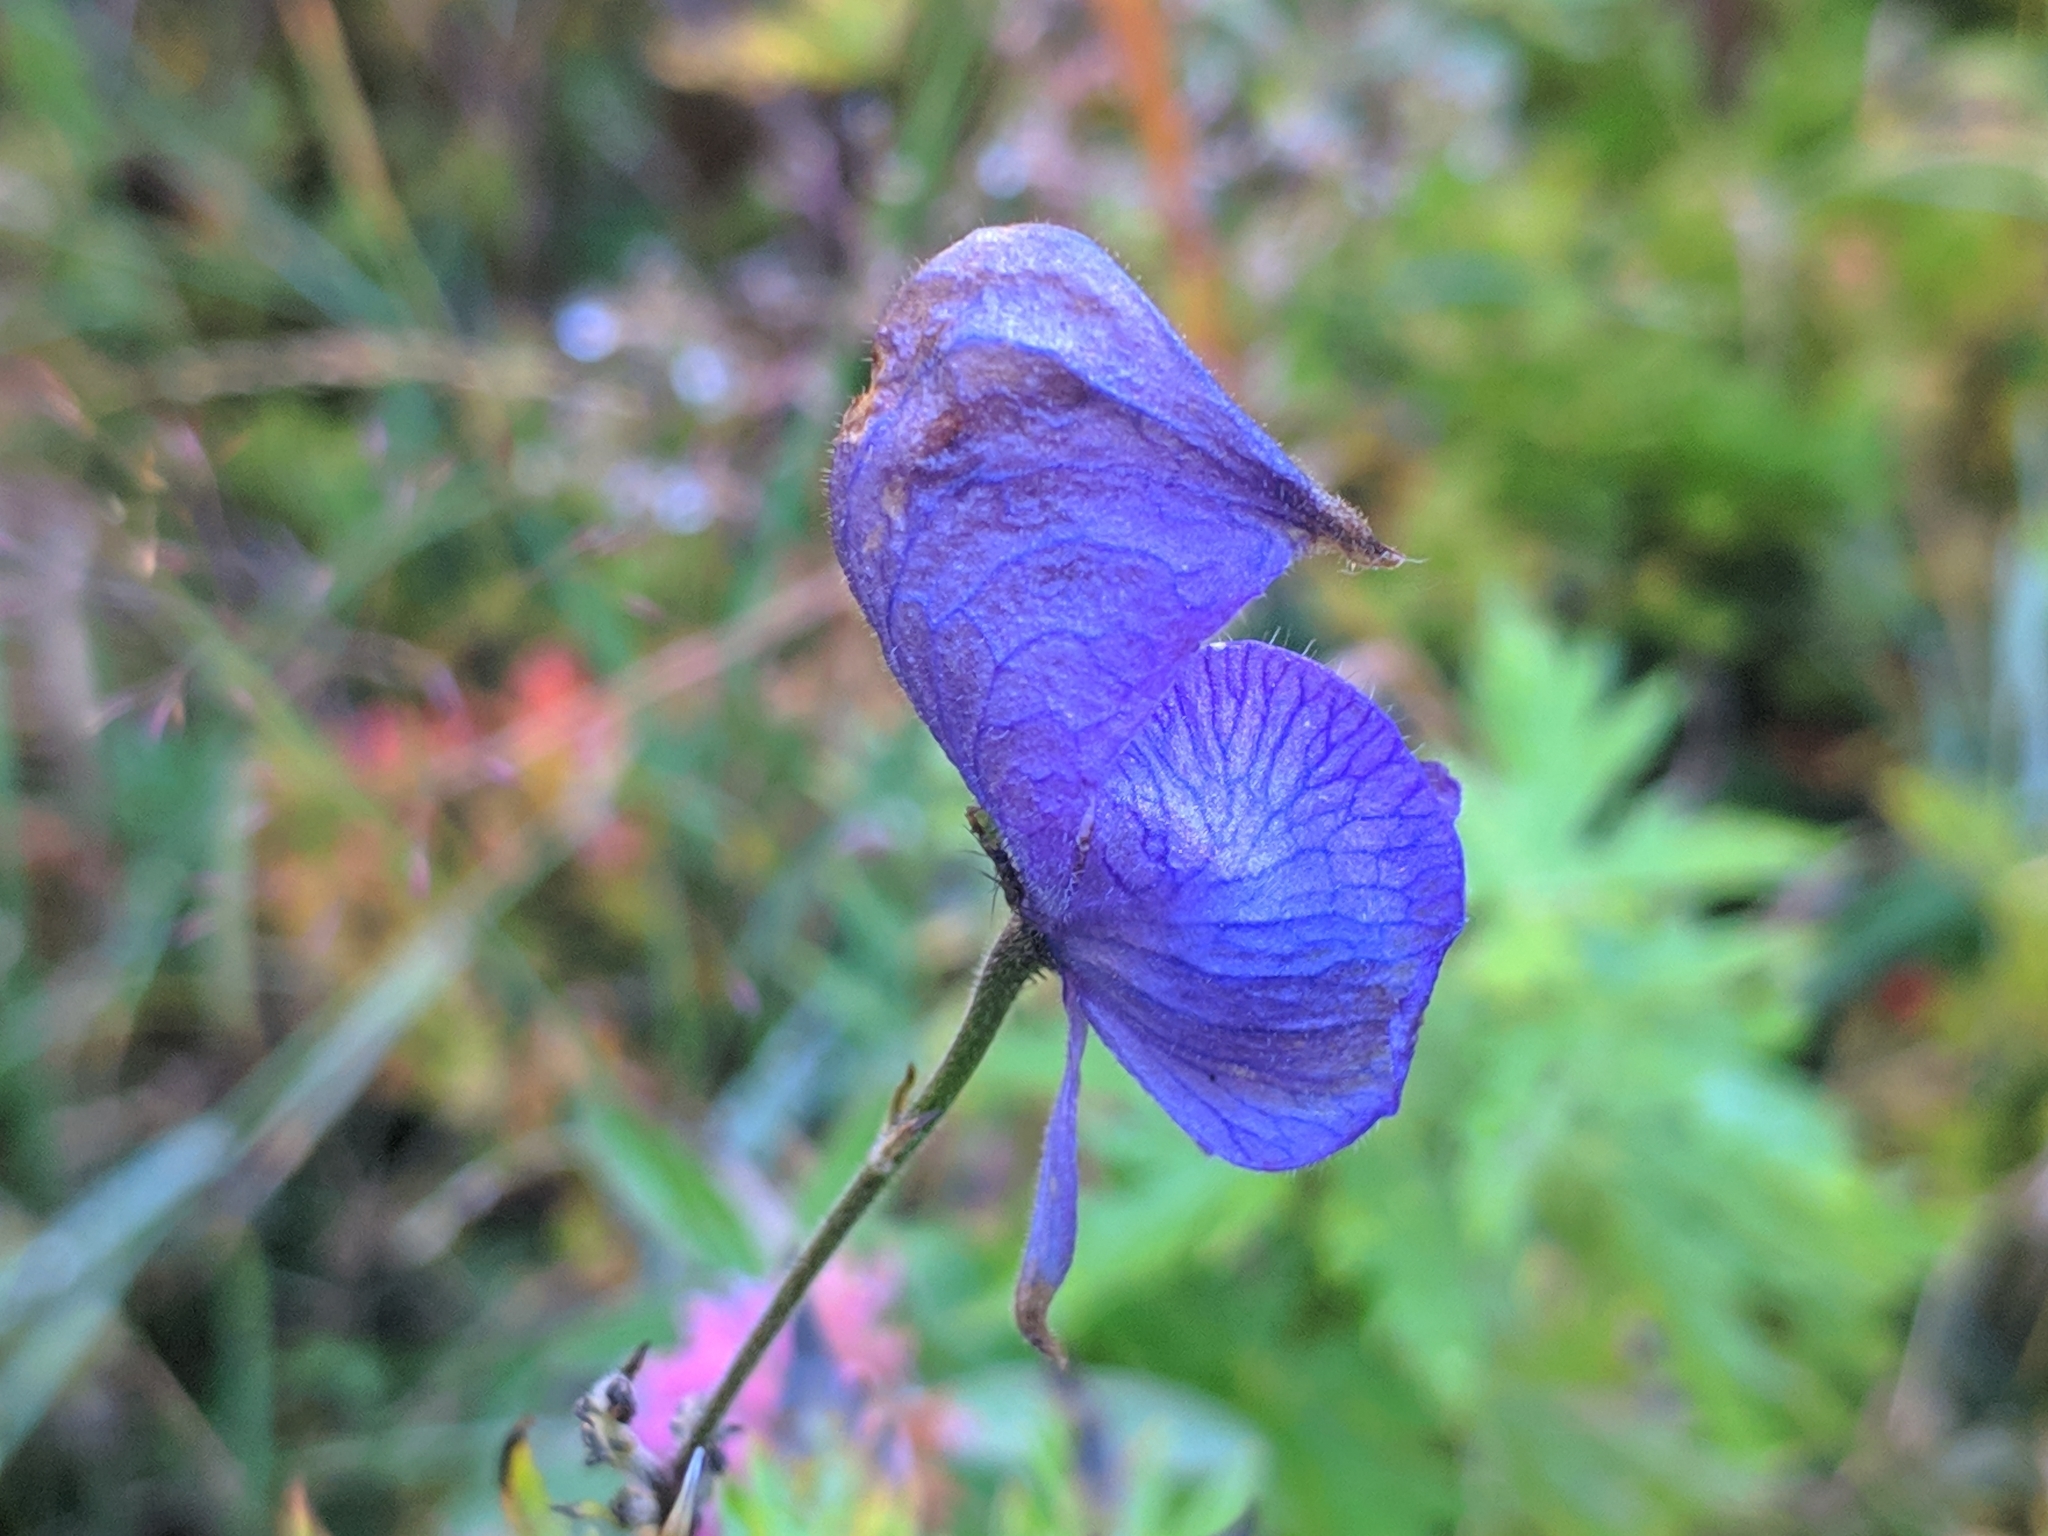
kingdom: Plantae
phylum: Tracheophyta
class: Magnoliopsida
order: Ranunculales
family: Ranunculaceae
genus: Aconitum
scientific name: Aconitum degenii
